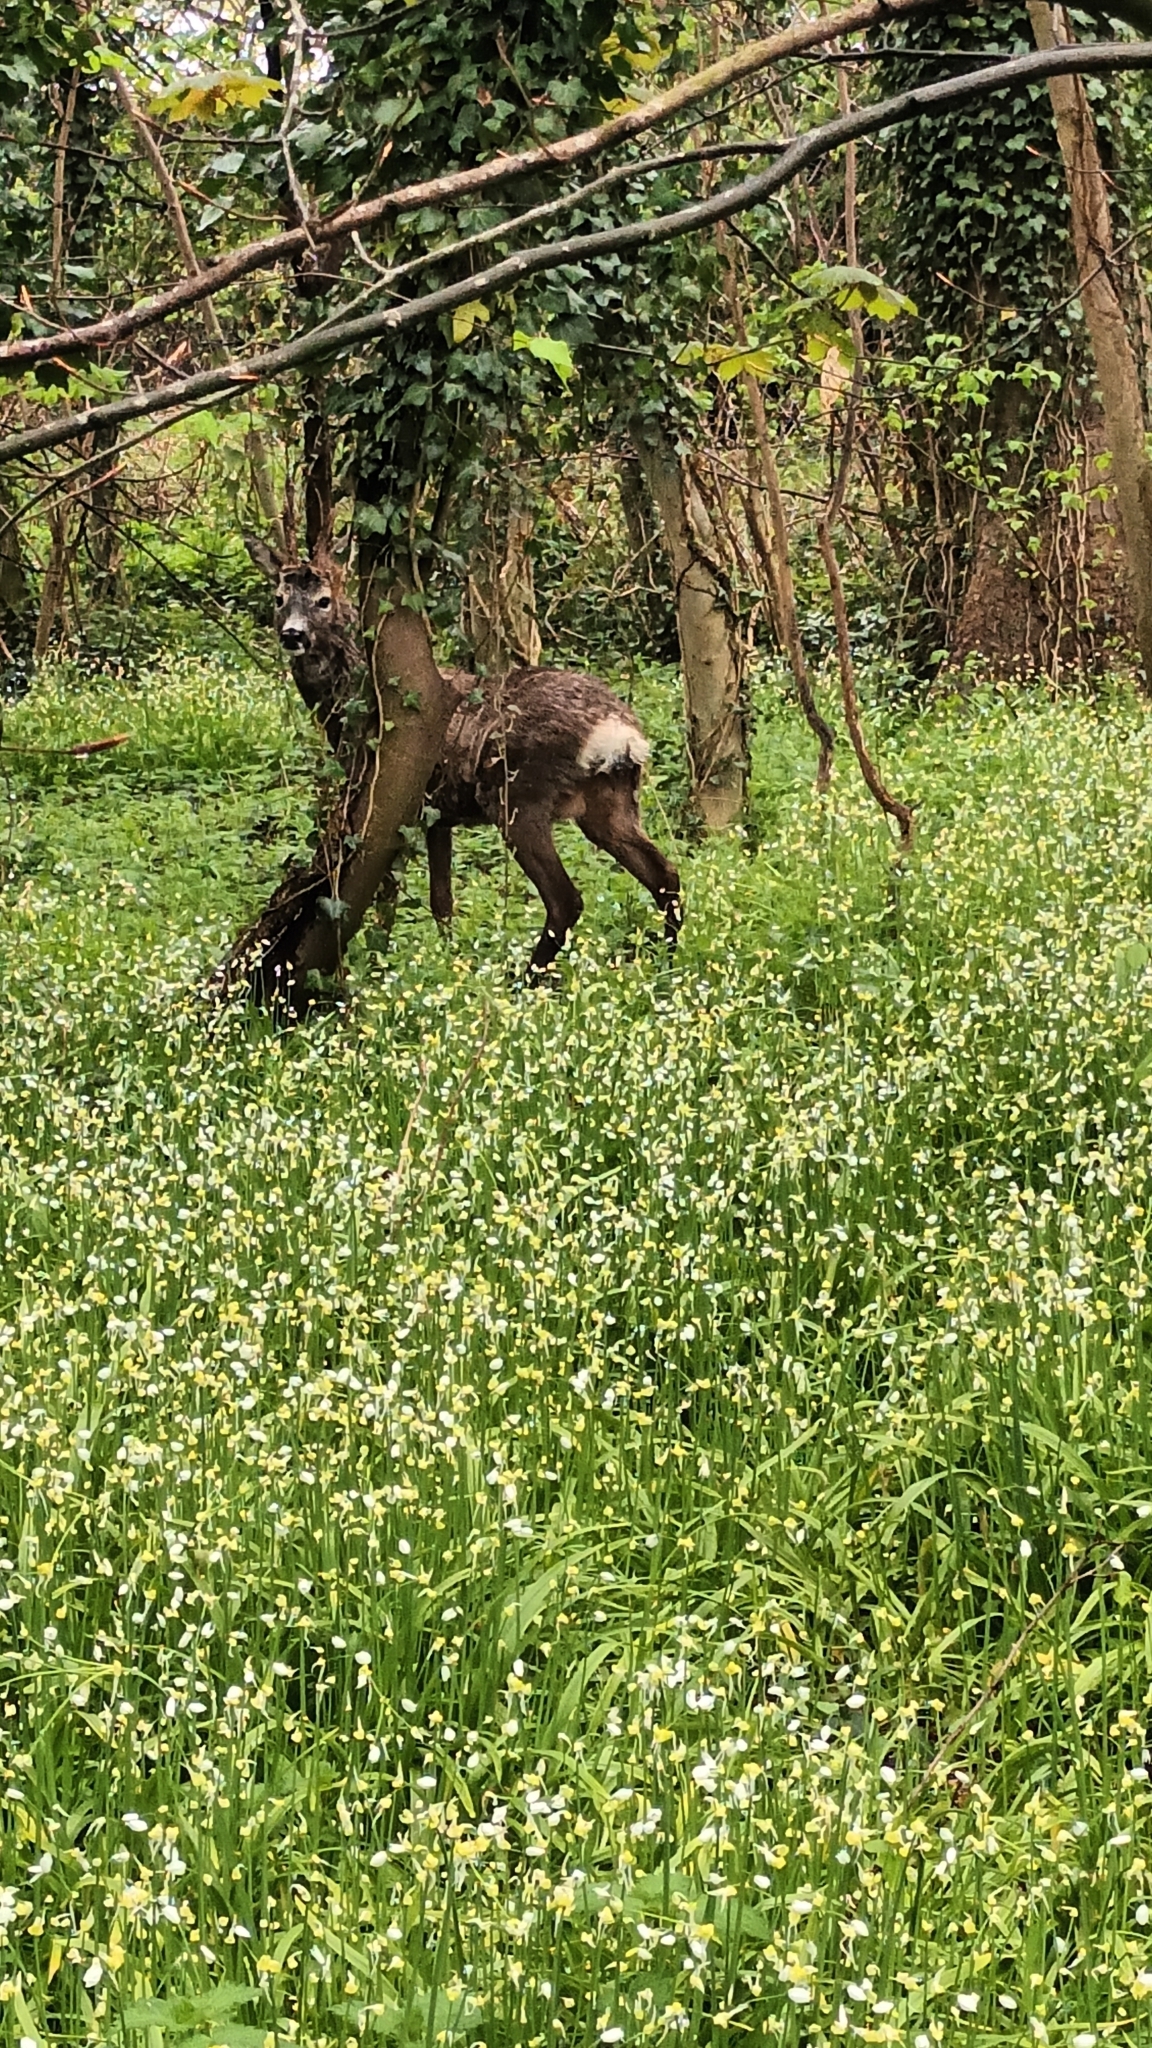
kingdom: Animalia
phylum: Chordata
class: Mammalia
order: Artiodactyla
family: Cervidae
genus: Capreolus
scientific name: Capreolus capreolus
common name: Western roe deer
